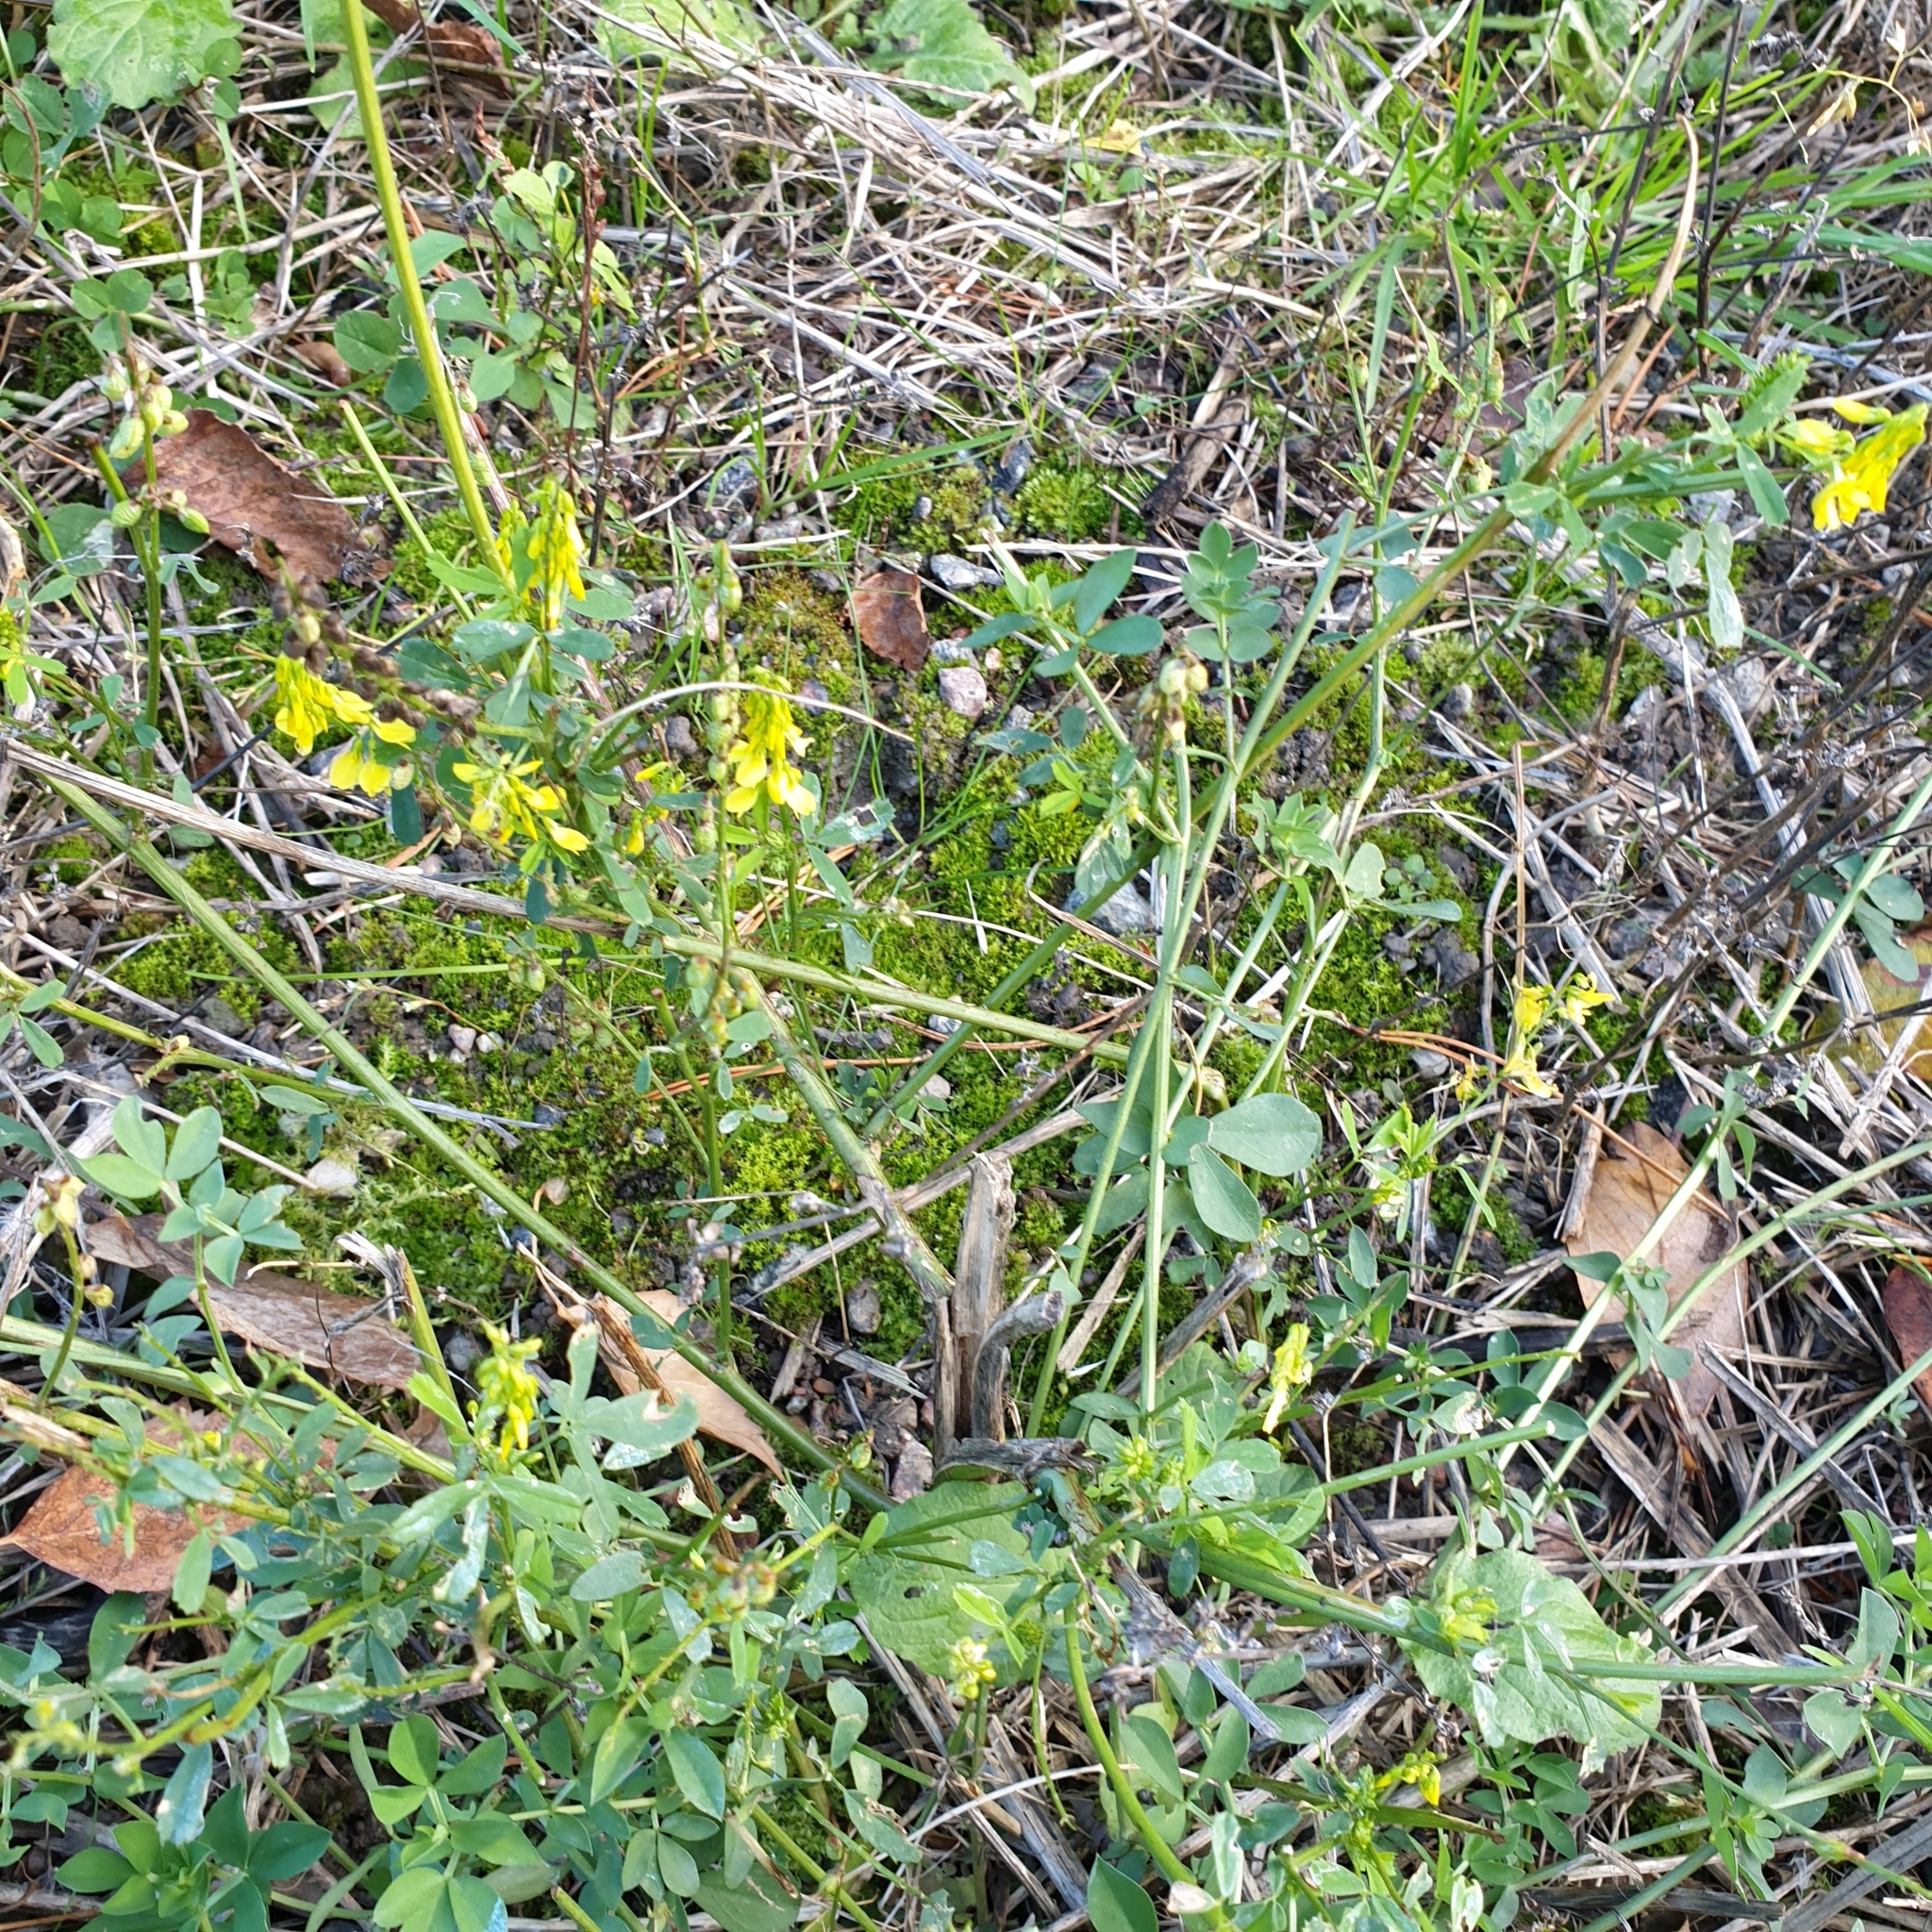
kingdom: Plantae
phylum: Tracheophyta
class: Magnoliopsida
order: Fabales
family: Fabaceae
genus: Melilotus
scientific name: Melilotus officinalis
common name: Sweetclover
